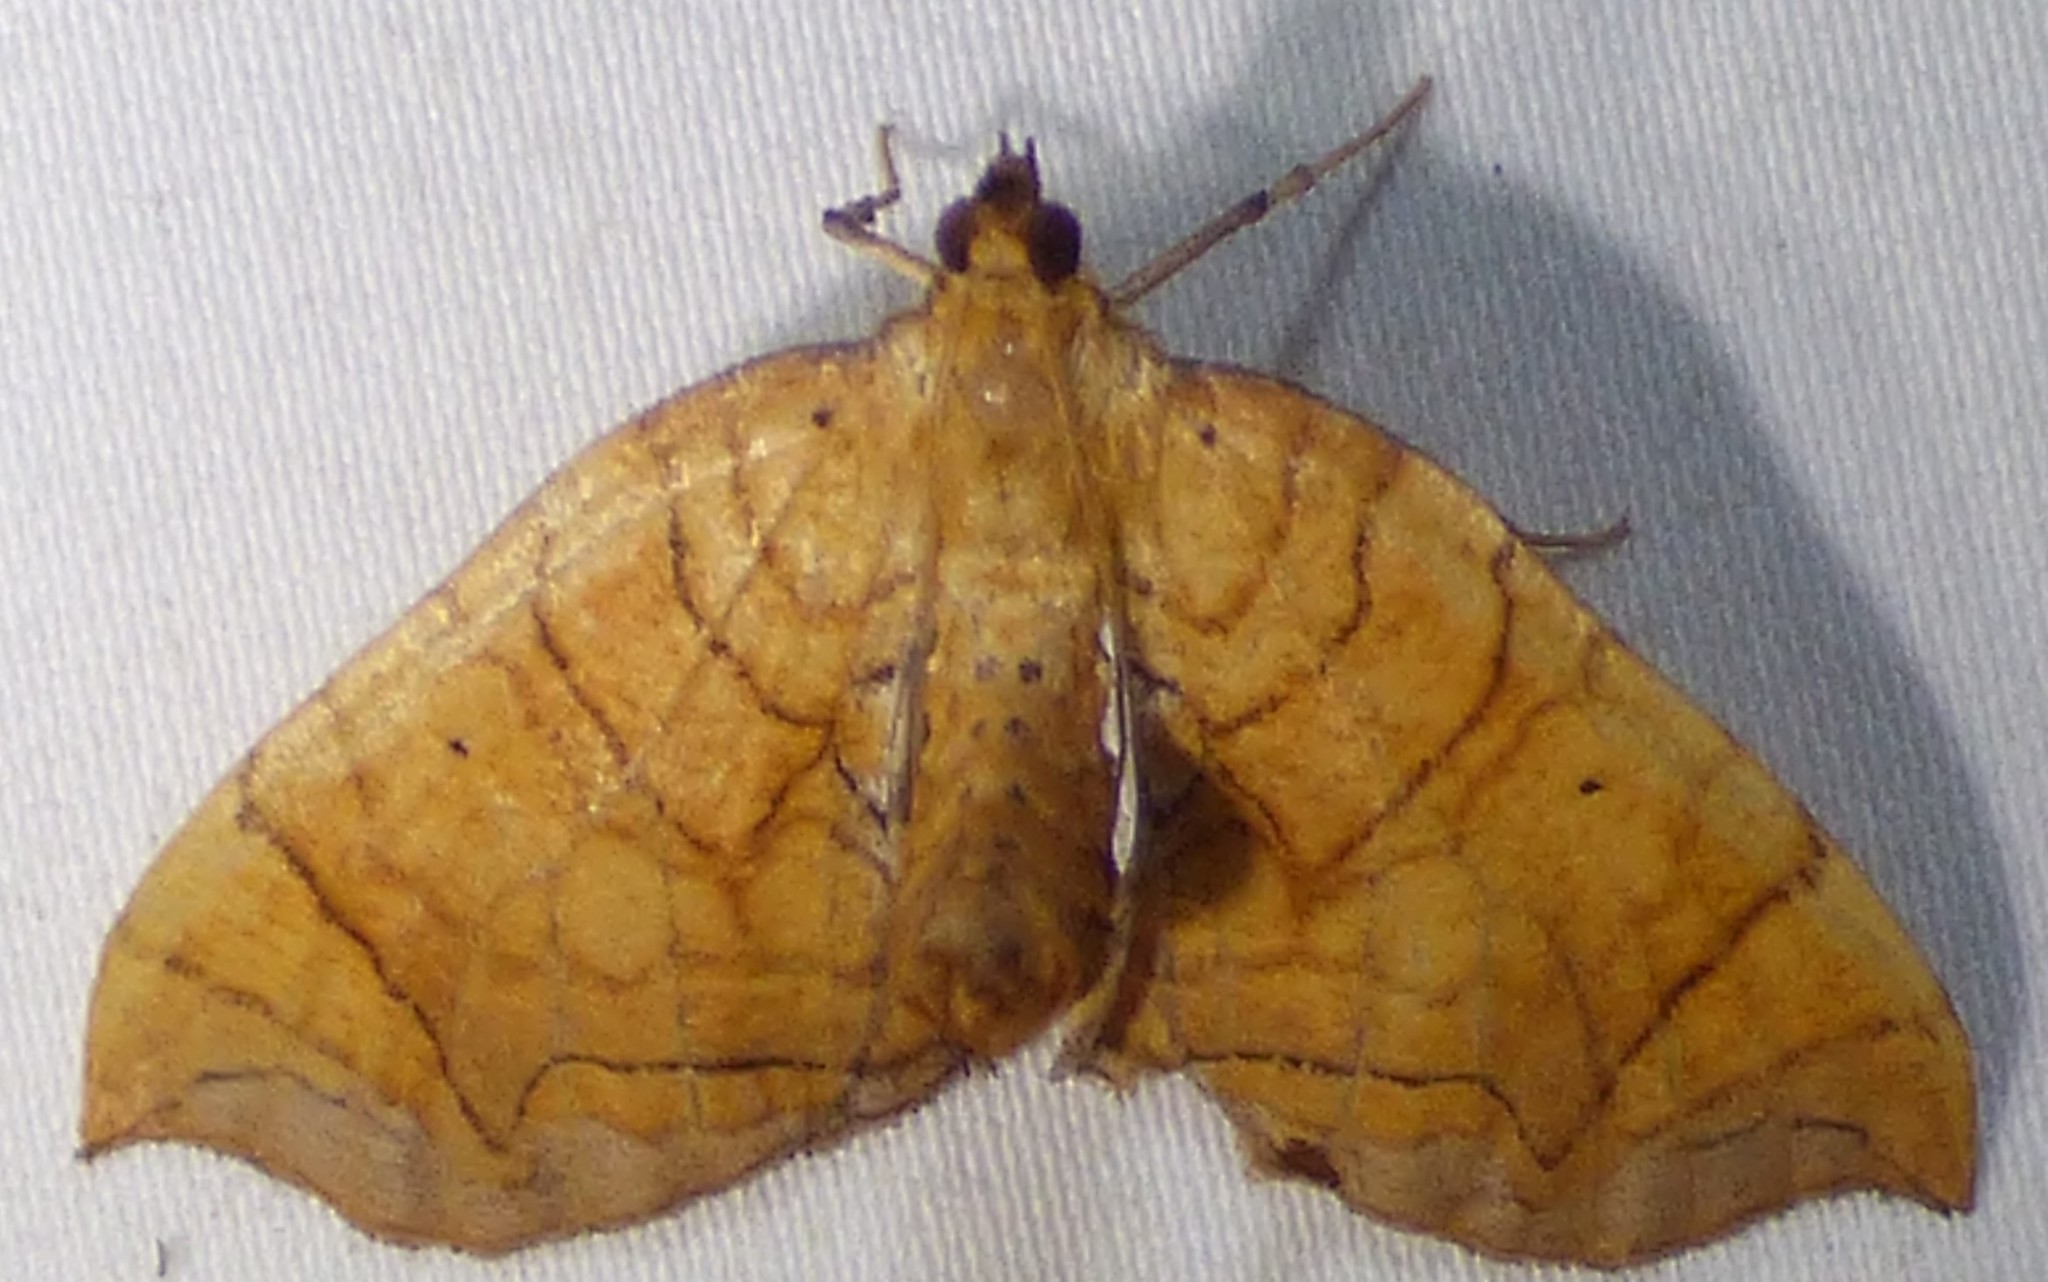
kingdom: Animalia
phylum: Arthropoda
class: Insecta
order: Lepidoptera
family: Geometridae
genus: Eulithis
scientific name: Eulithis
